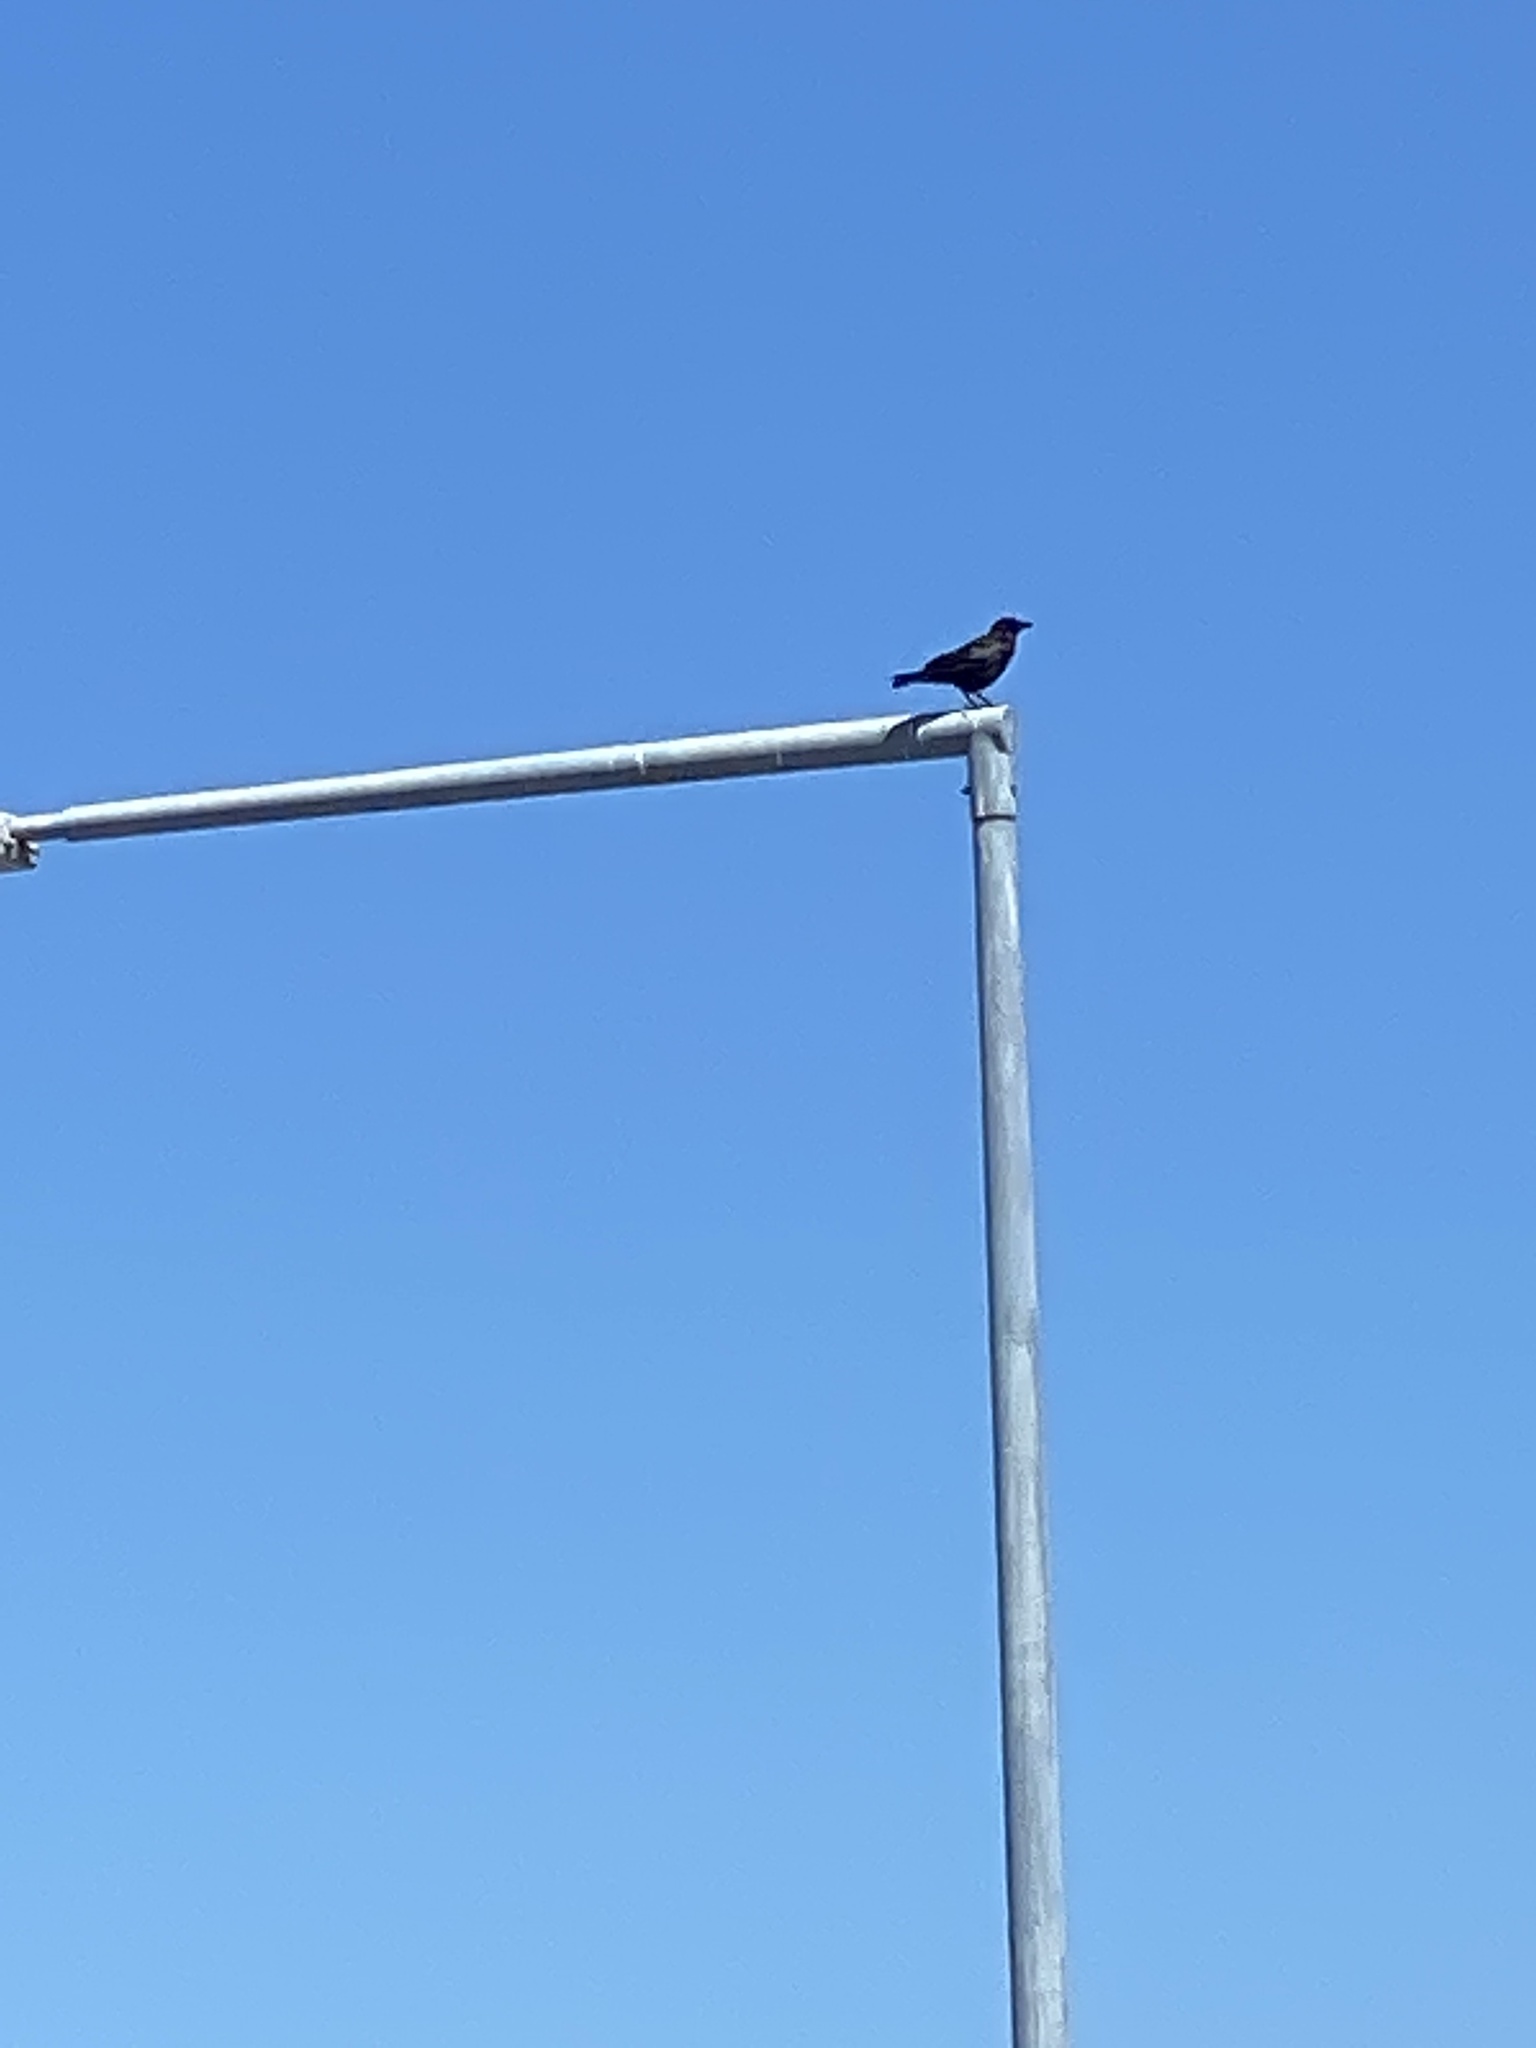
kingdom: Animalia
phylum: Chordata
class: Aves
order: Passeriformes
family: Corvidae
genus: Corvus
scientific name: Corvus brachyrhynchos
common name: American crow
